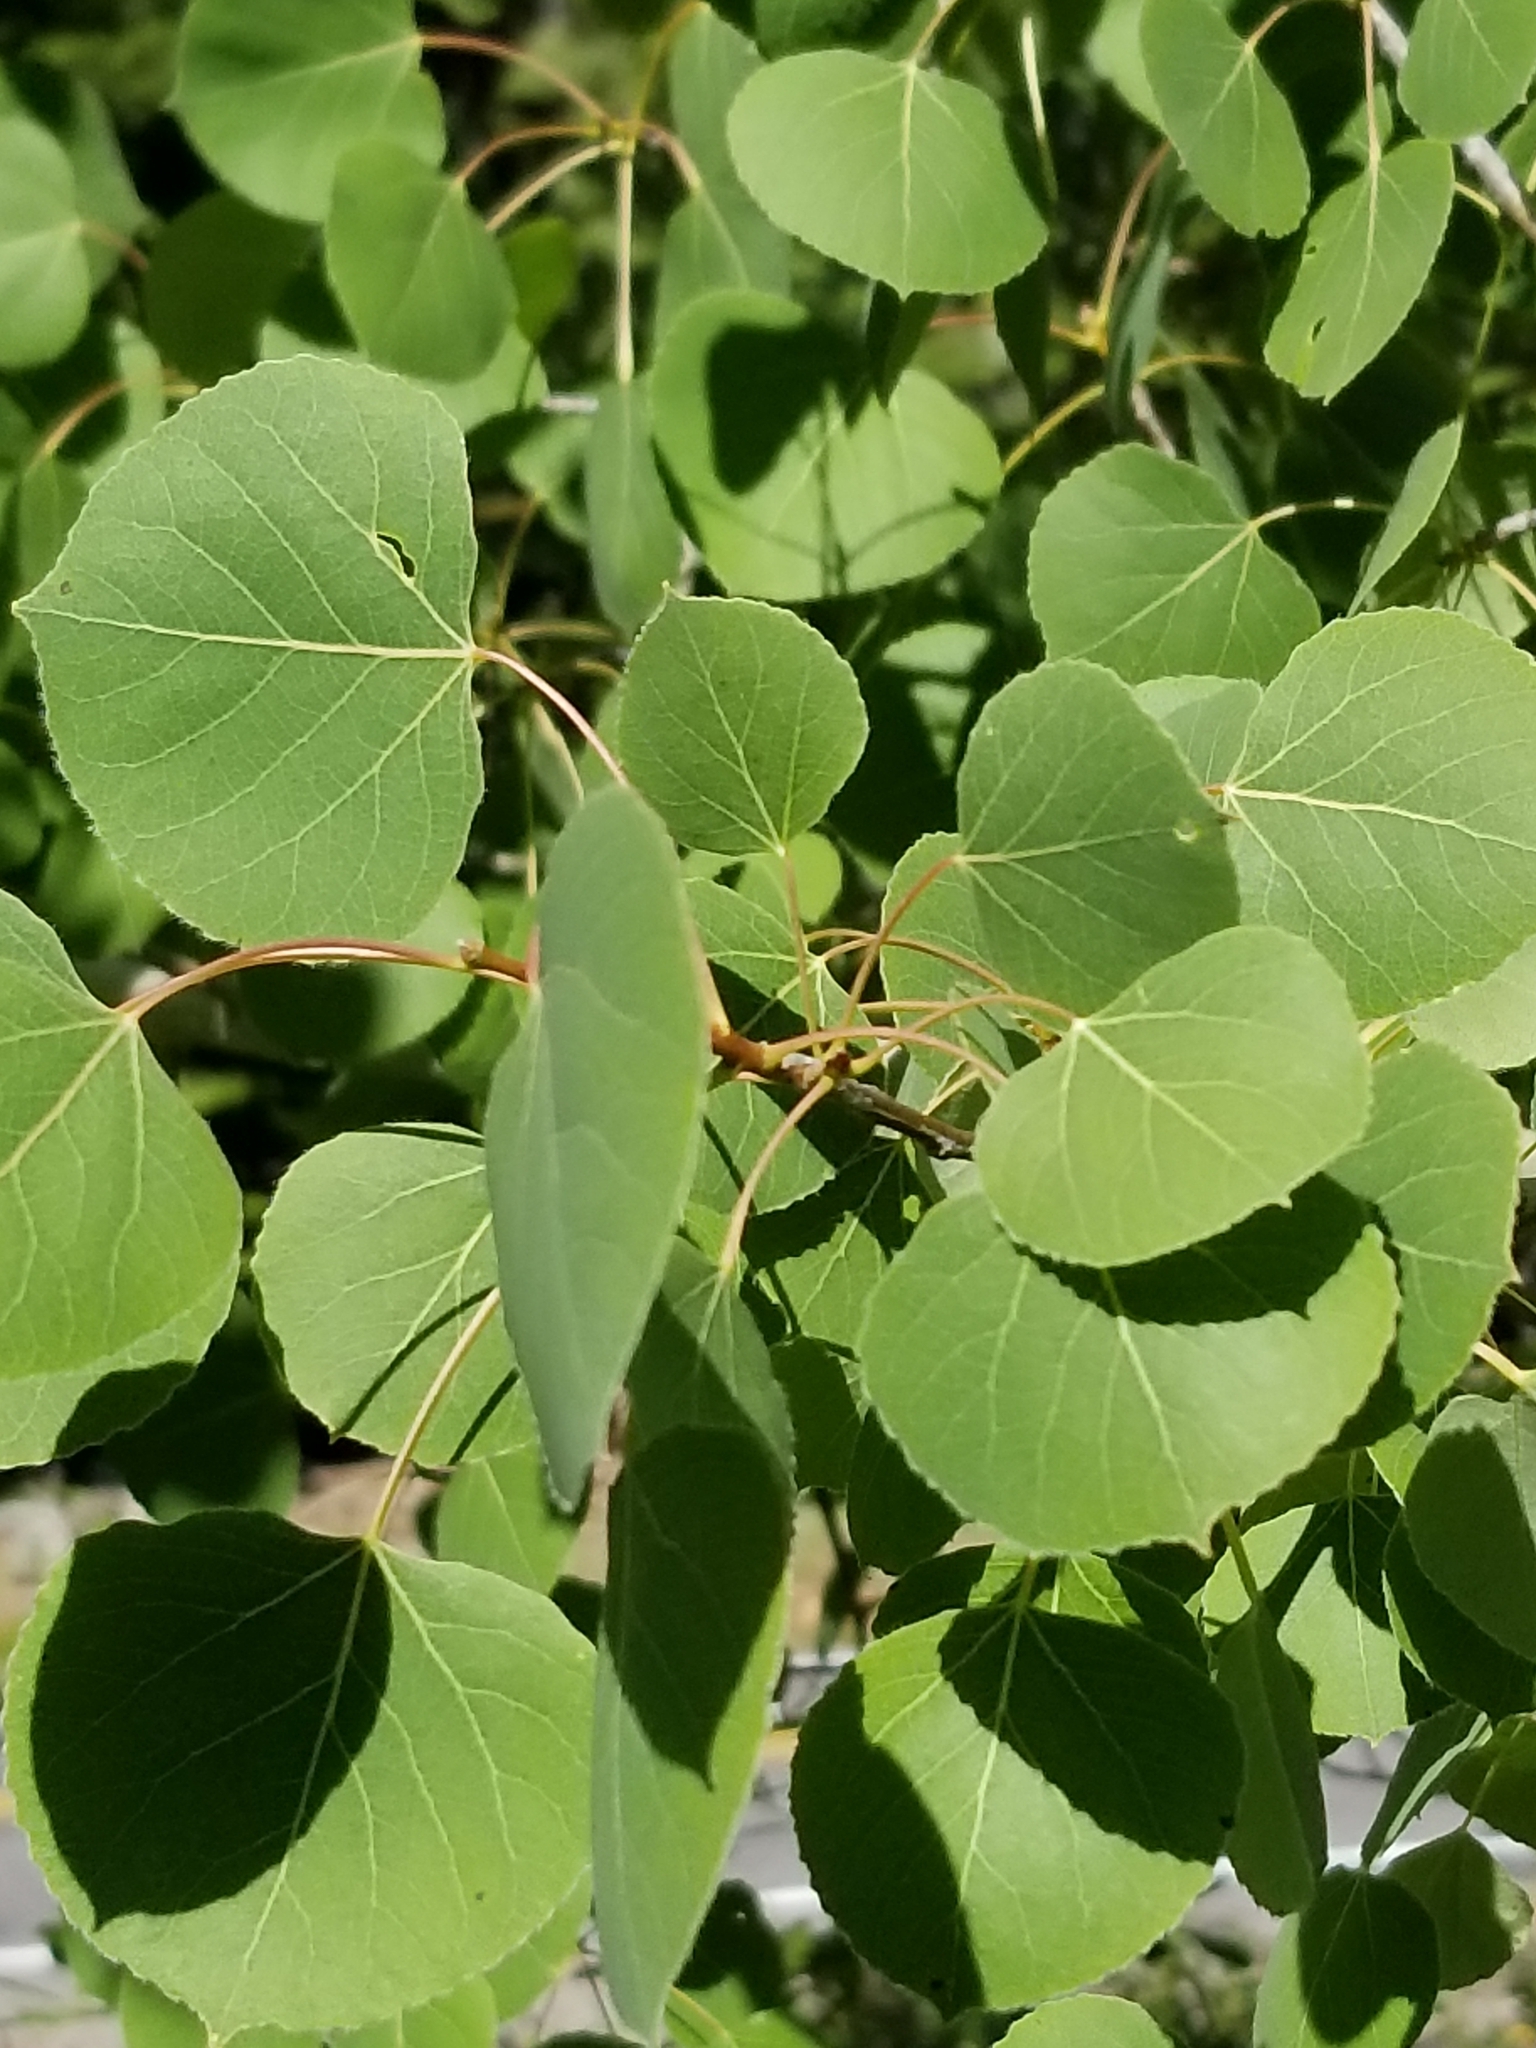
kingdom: Plantae
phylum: Tracheophyta
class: Magnoliopsida
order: Malpighiales
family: Salicaceae
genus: Populus
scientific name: Populus tremuloides
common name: Quaking aspen
